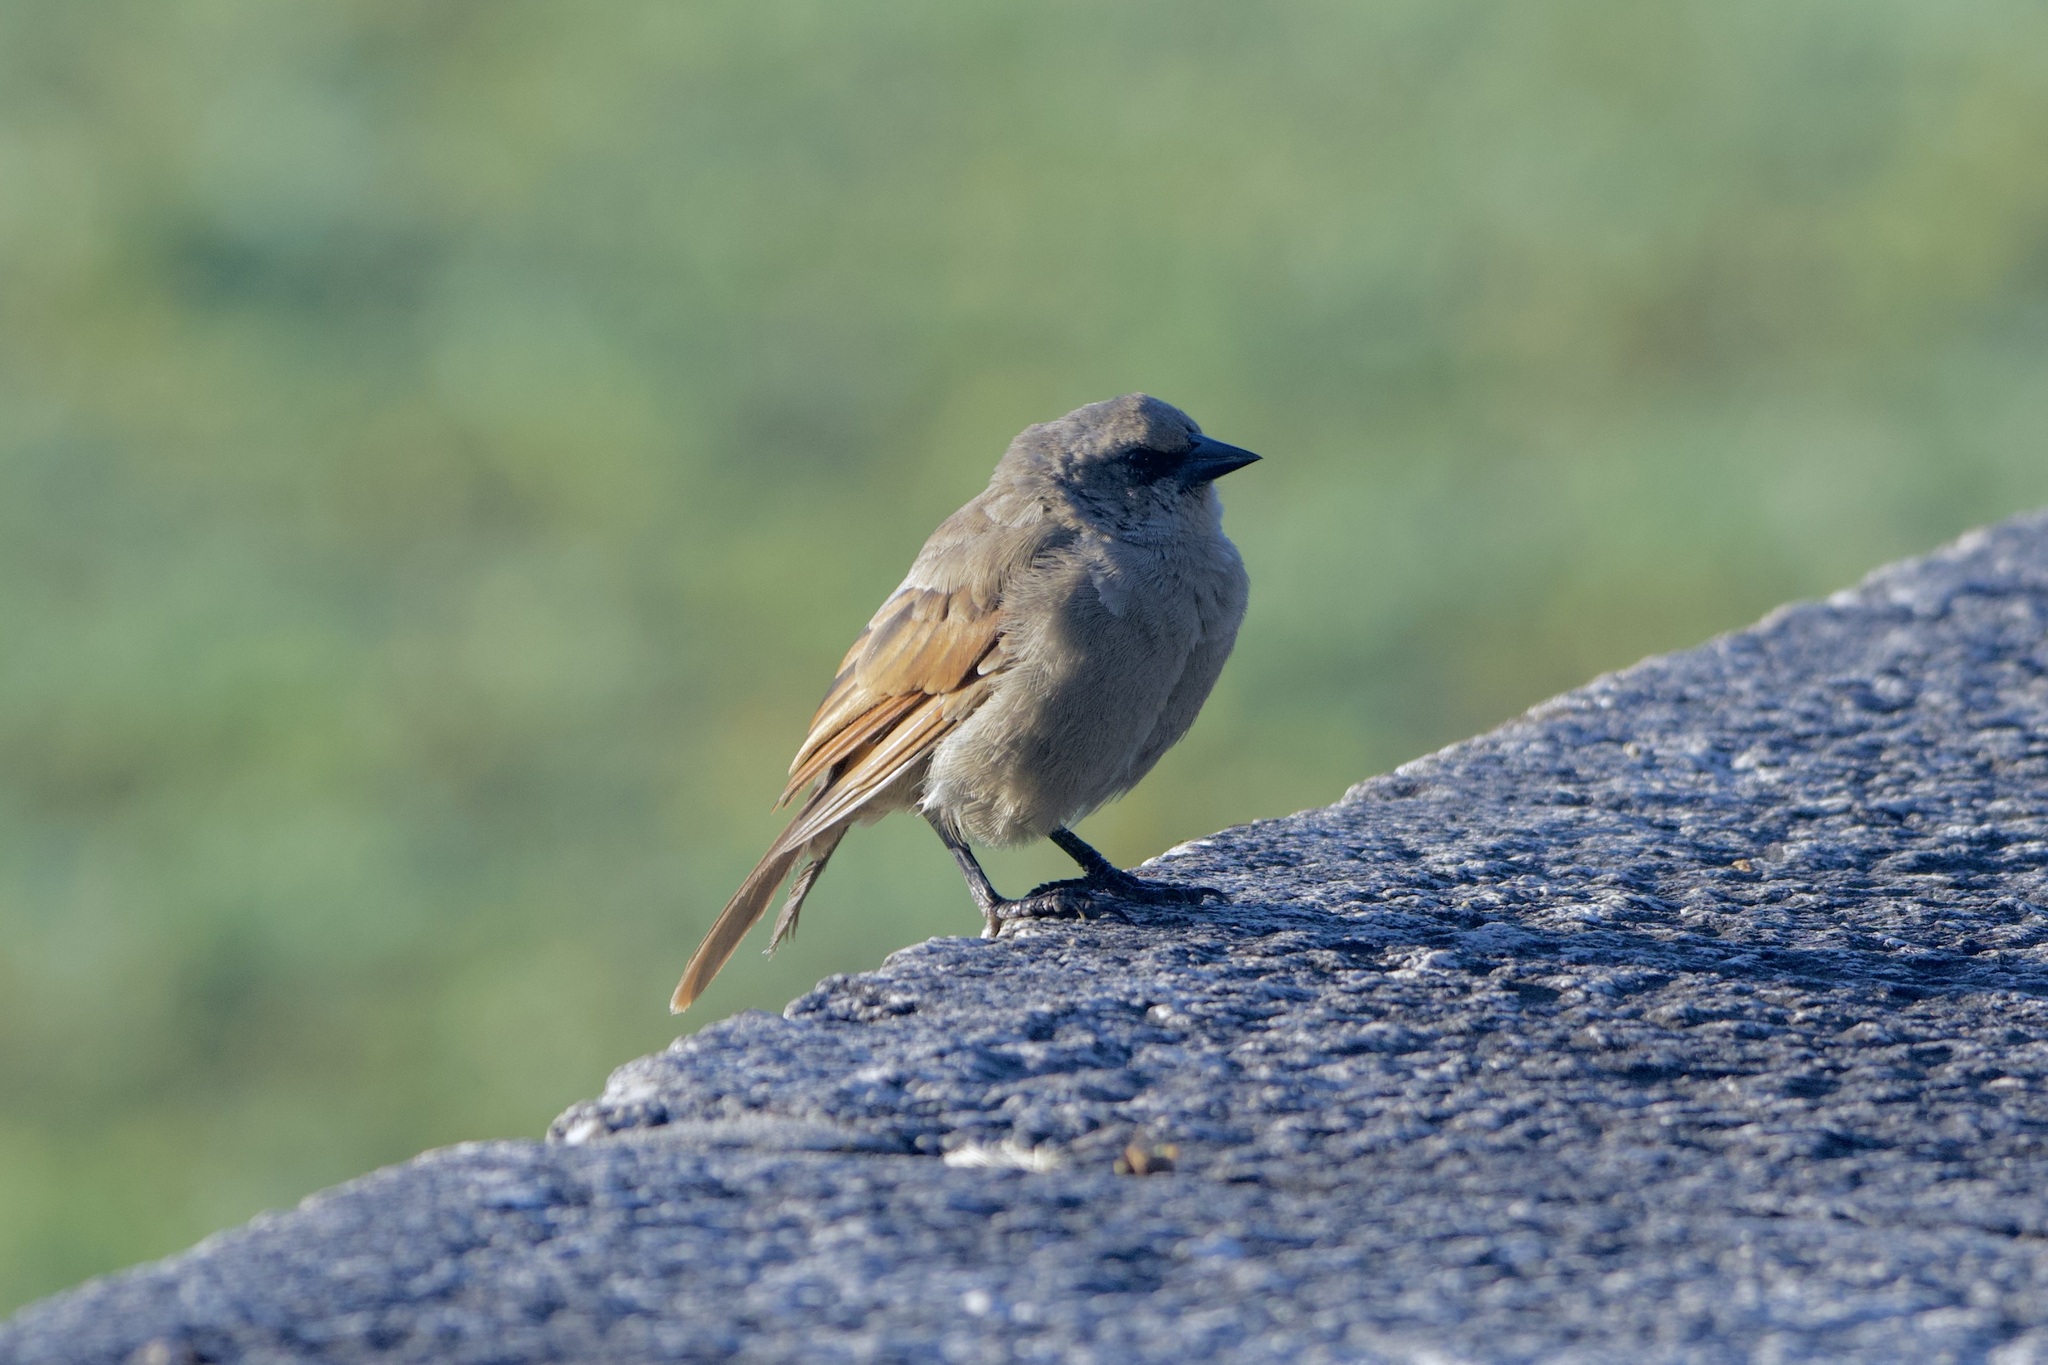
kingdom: Animalia
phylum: Chordata
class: Aves
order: Passeriformes
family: Icteridae
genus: Agelaioides
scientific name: Agelaioides badius
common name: Baywing
